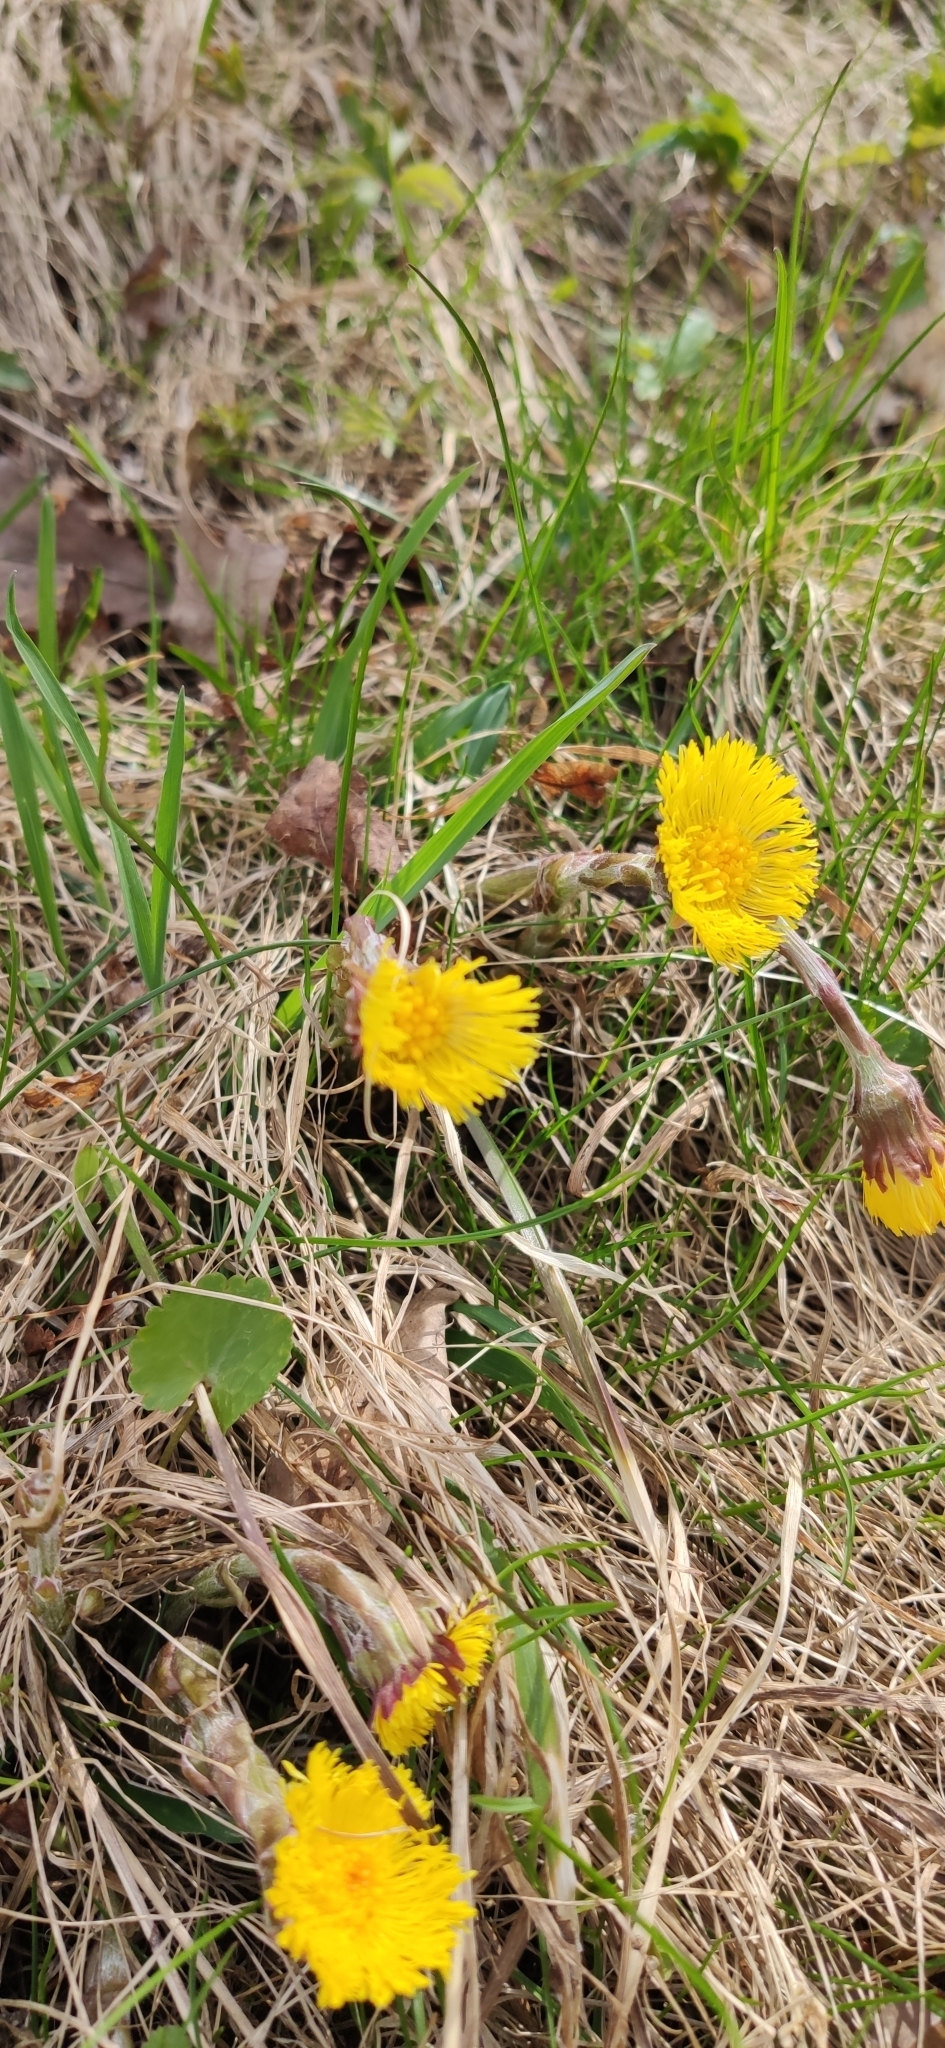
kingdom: Plantae
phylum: Tracheophyta
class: Magnoliopsida
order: Asterales
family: Asteraceae
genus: Tussilago
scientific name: Tussilago farfara
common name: Coltsfoot
